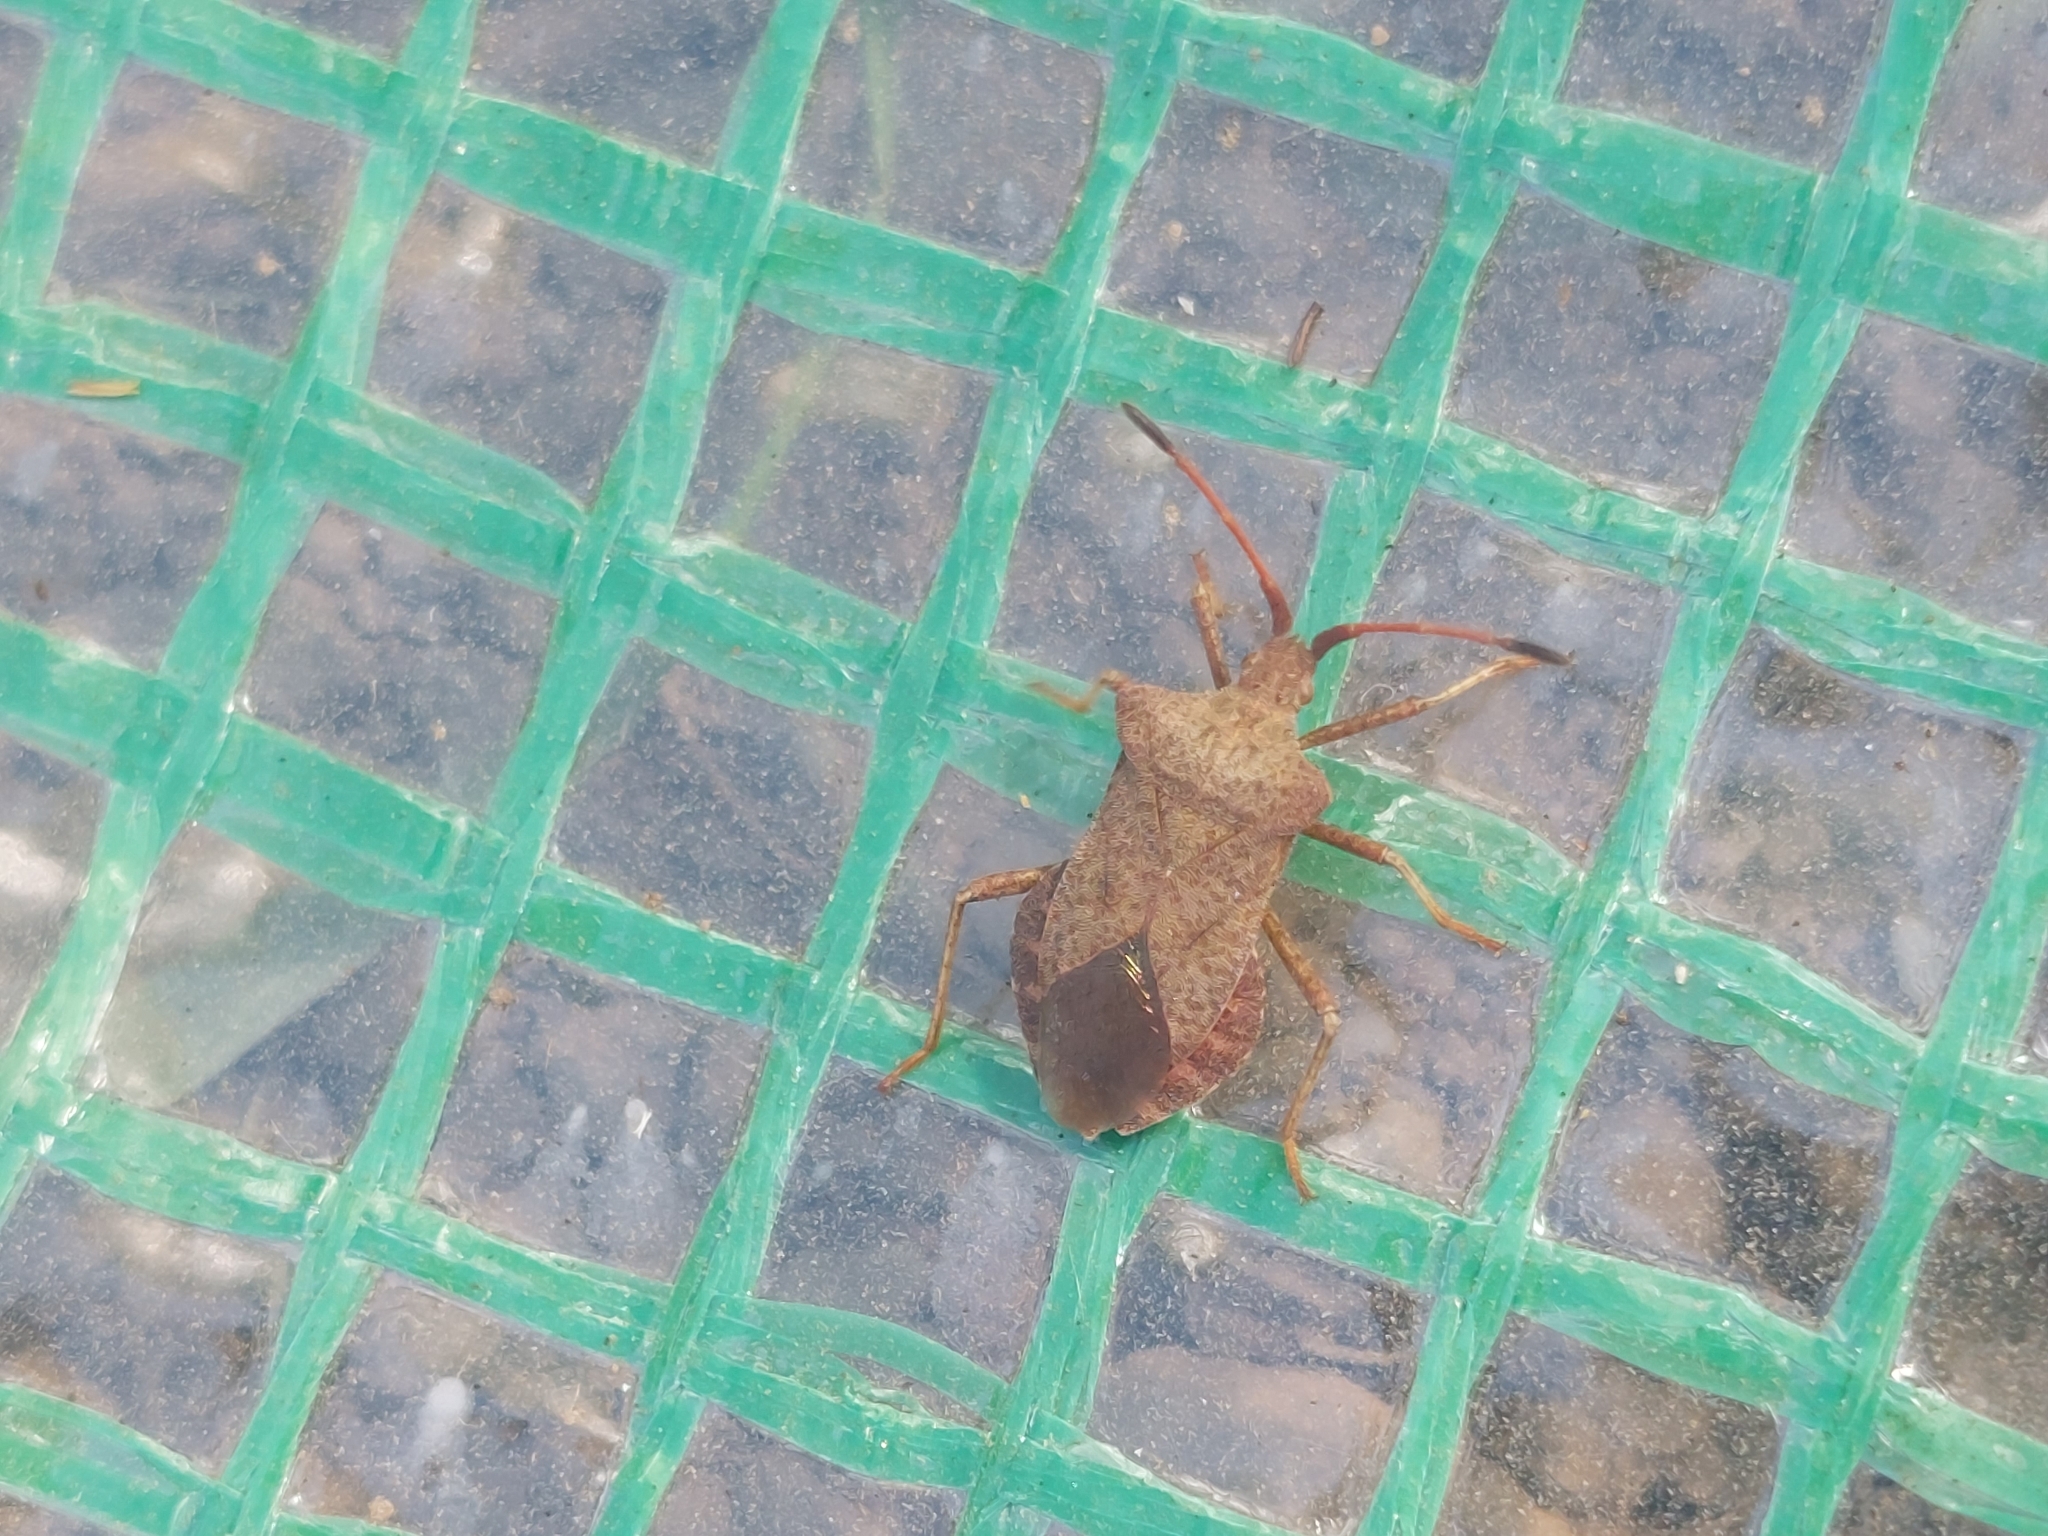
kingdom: Animalia
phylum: Arthropoda
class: Insecta
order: Hemiptera
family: Coreidae
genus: Coreus
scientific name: Coreus marginatus
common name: Dock bug
